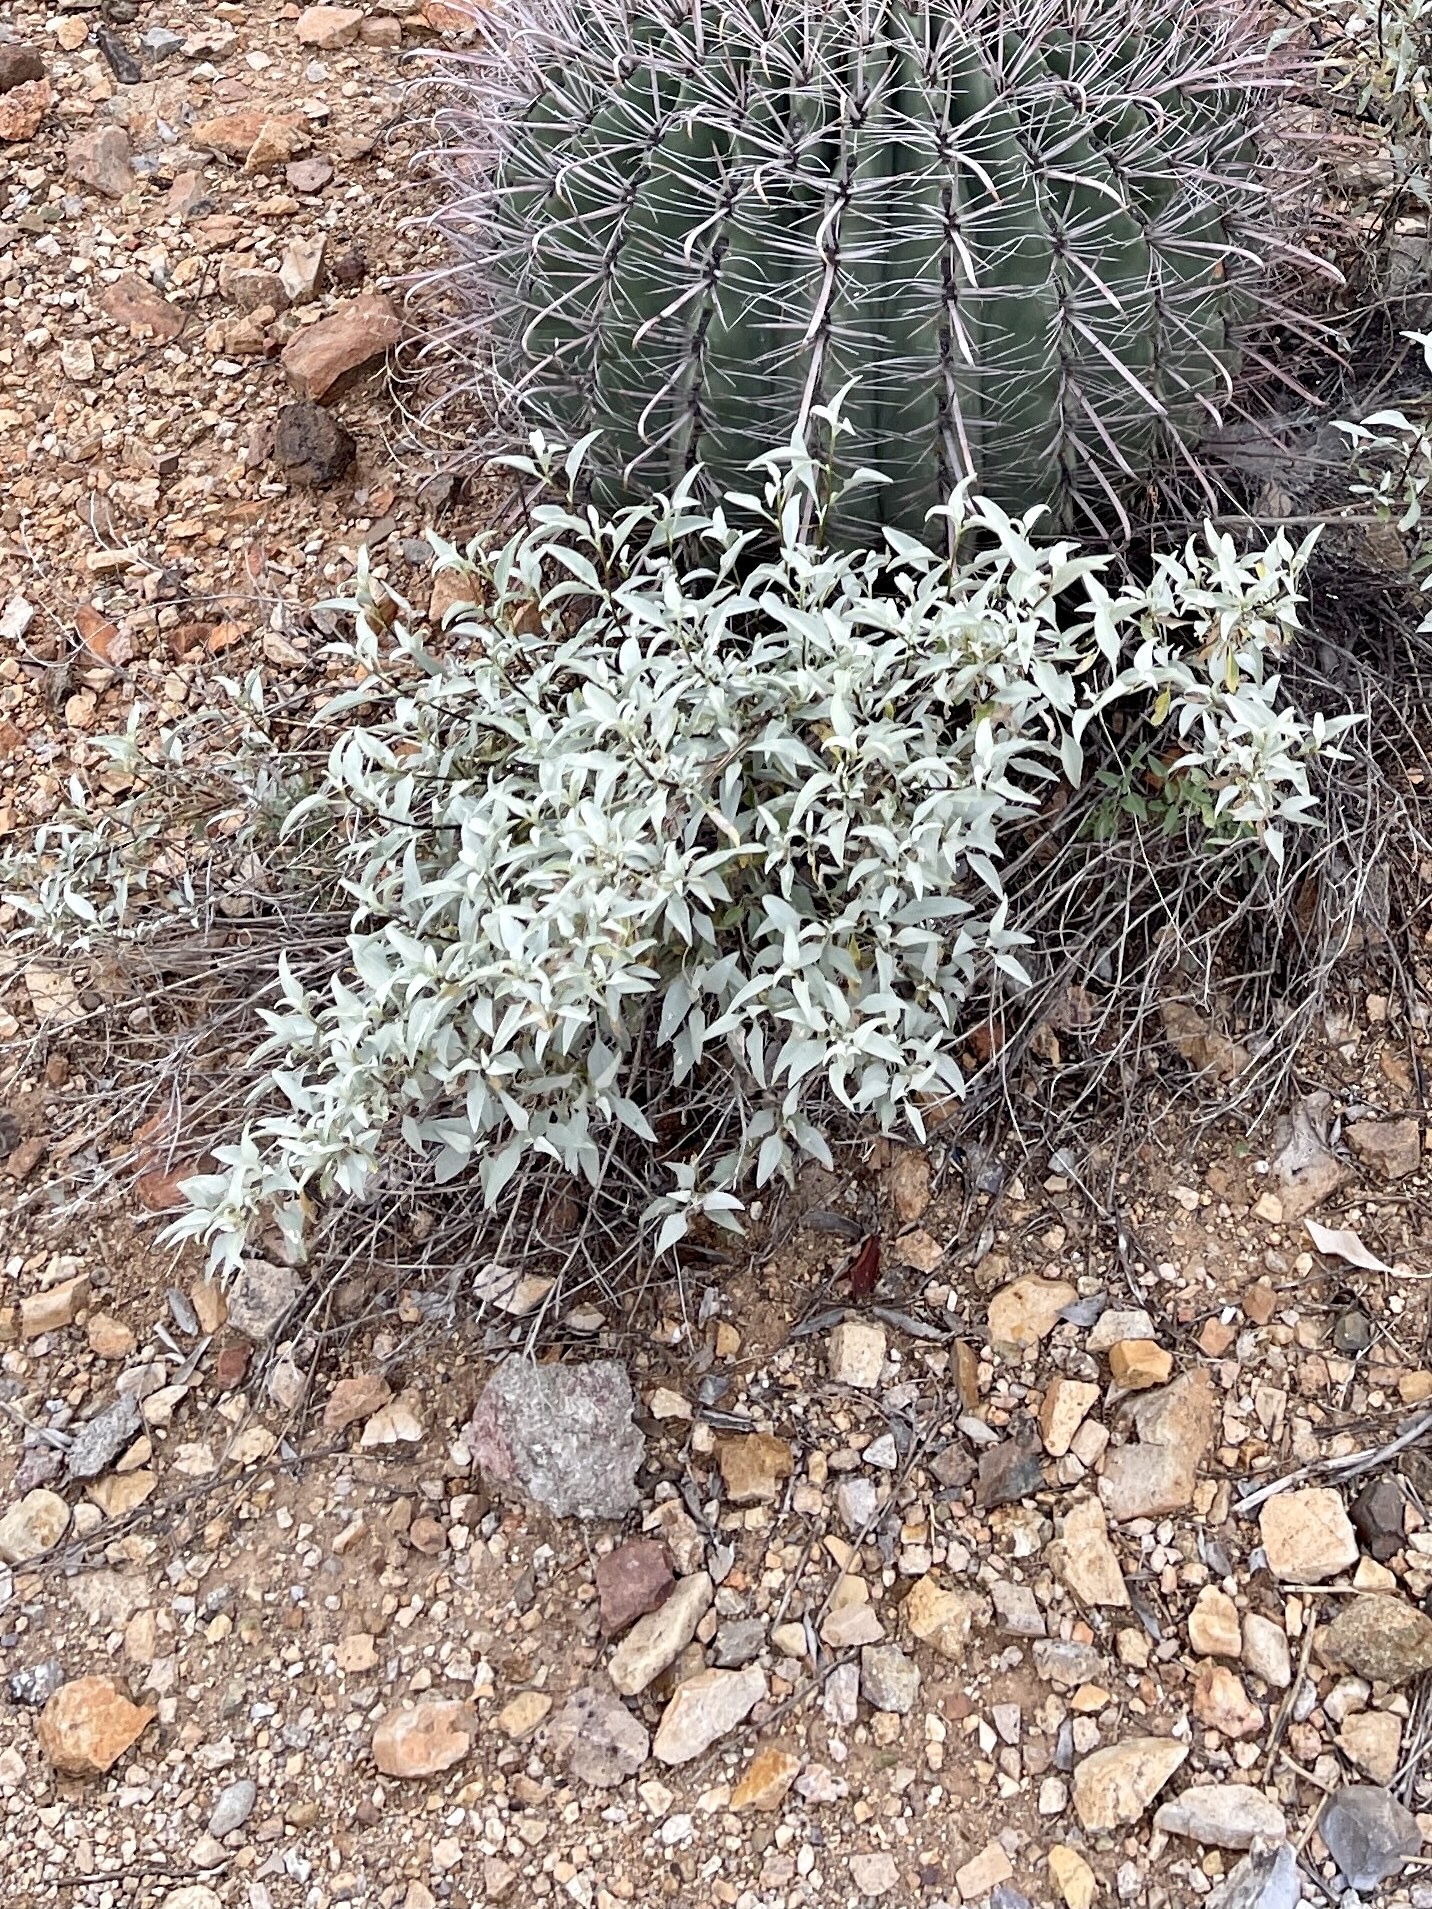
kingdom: Plantae
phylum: Tracheophyta
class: Magnoliopsida
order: Asterales
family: Asteraceae
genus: Ambrosia
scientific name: Ambrosia deltoidea
